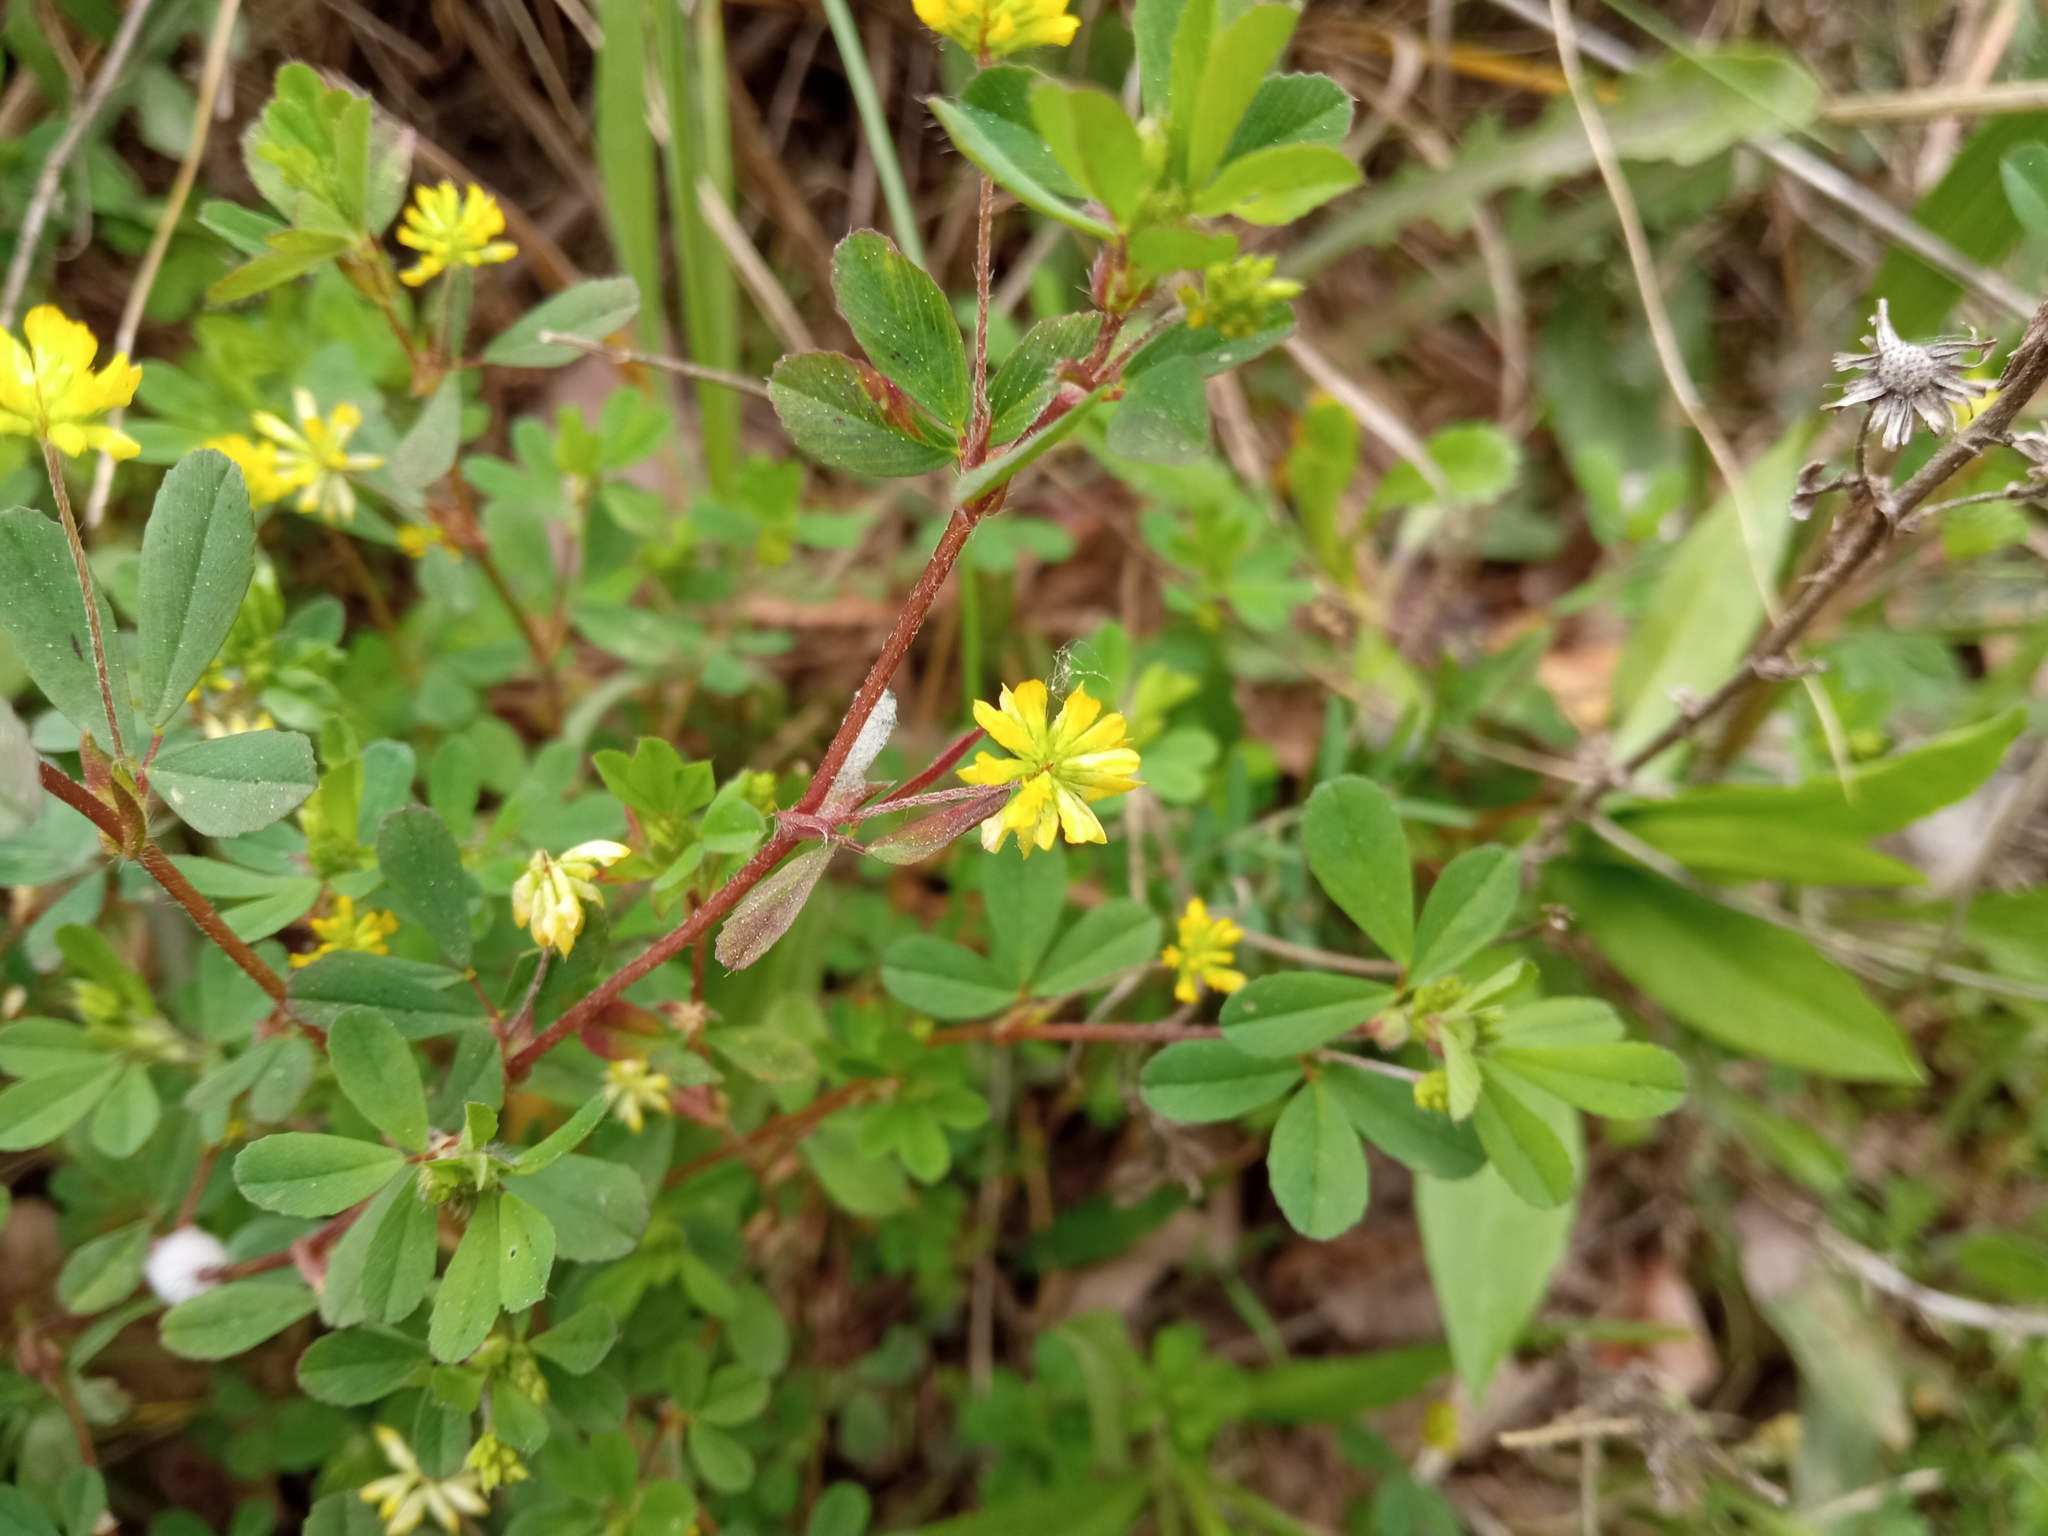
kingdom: Plantae
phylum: Tracheophyta
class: Magnoliopsida
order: Fabales
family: Fabaceae
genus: Trifolium
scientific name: Trifolium dubium
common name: Suckling clover
